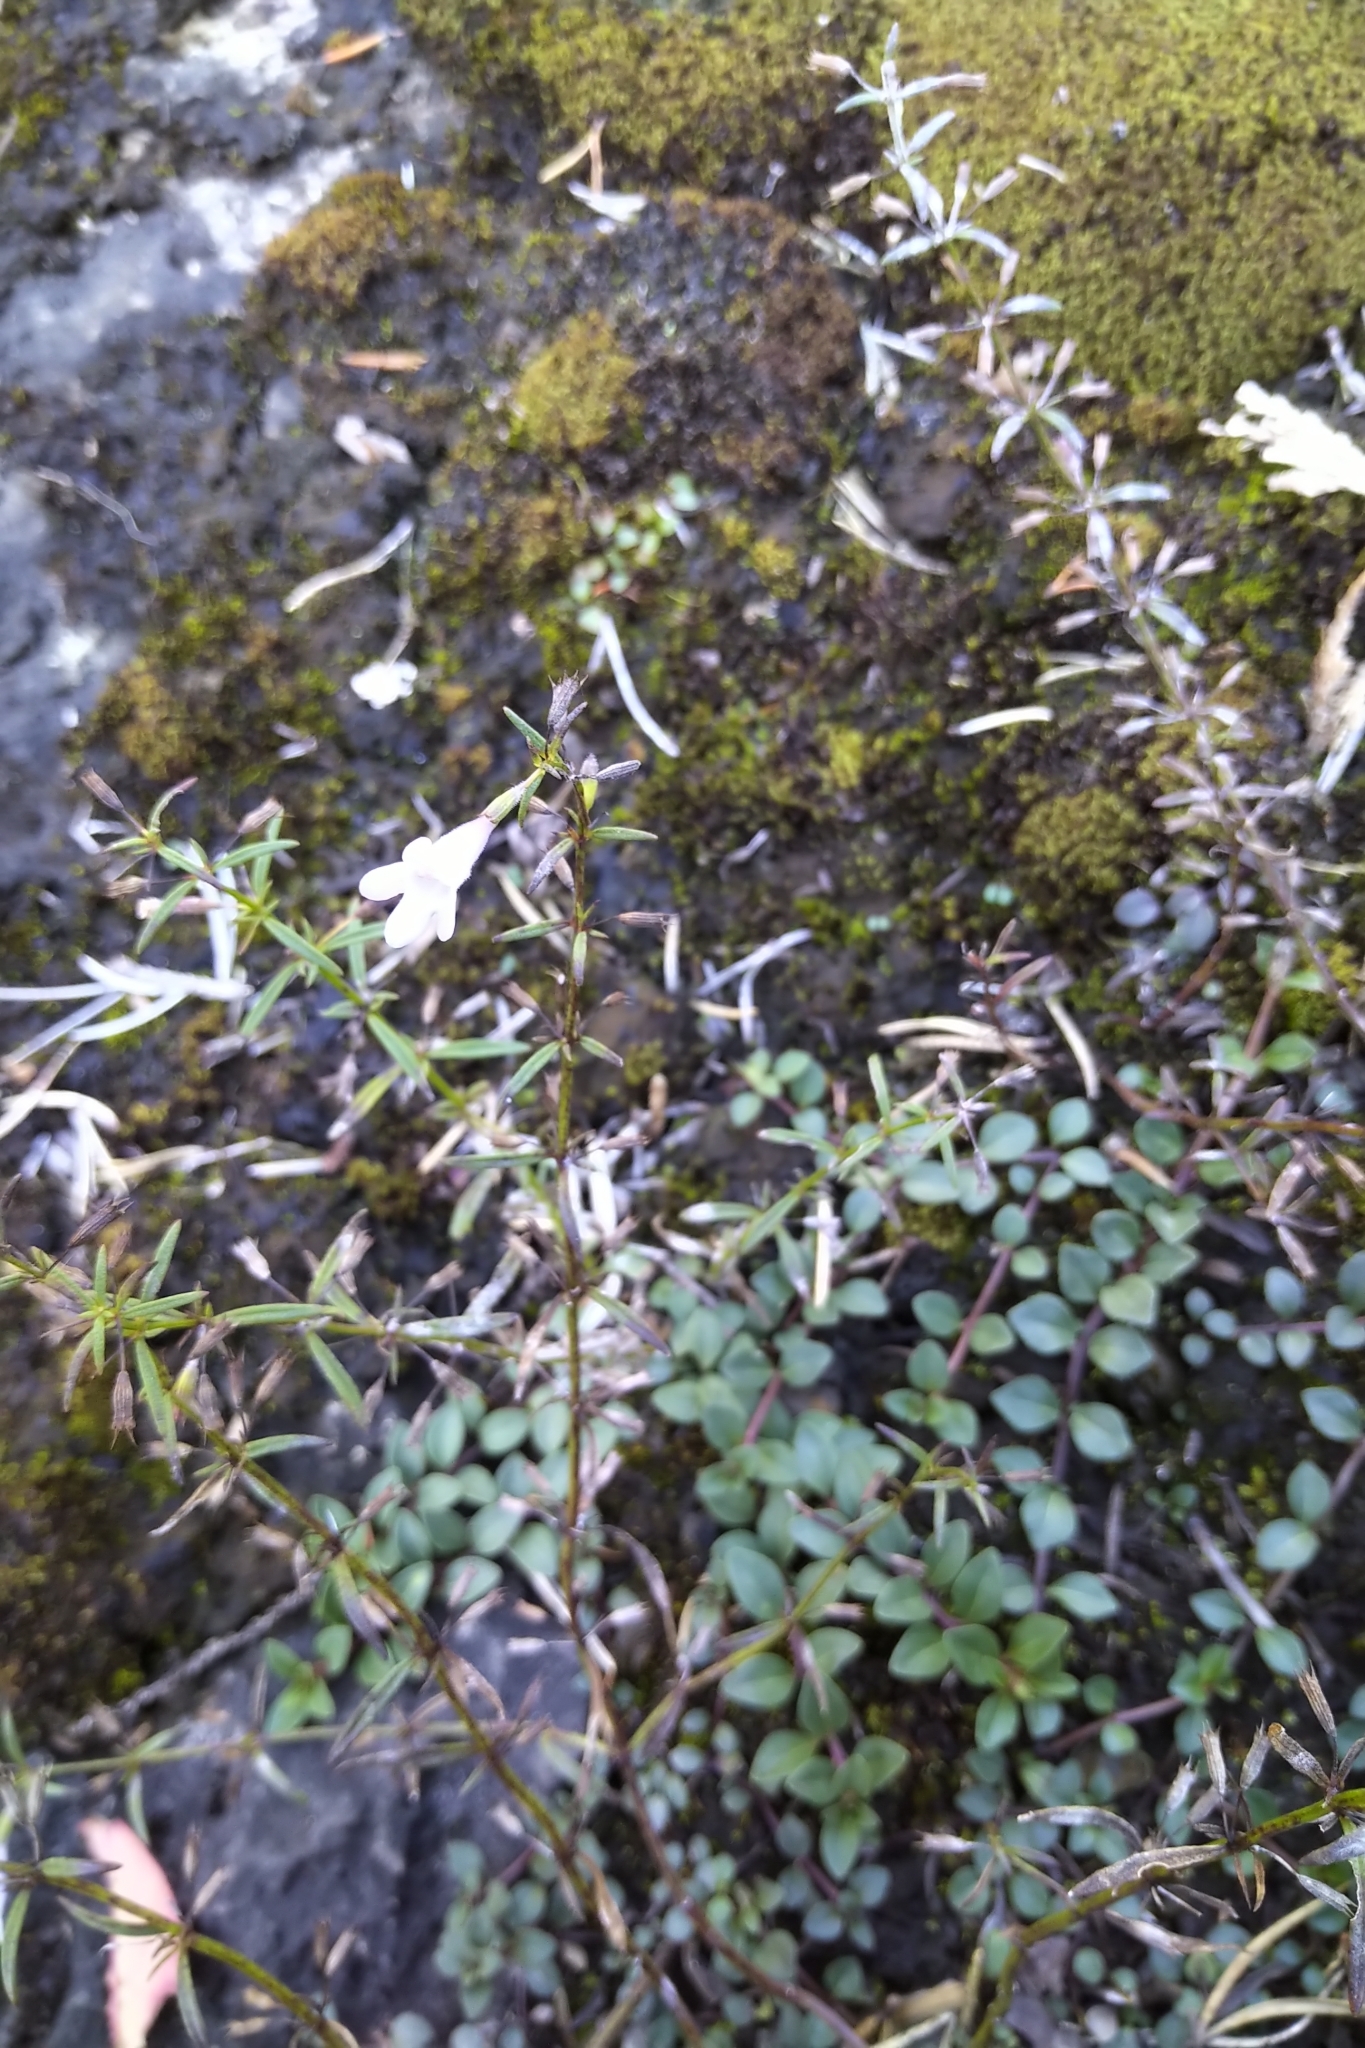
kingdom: Plantae
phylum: Tracheophyta
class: Magnoliopsida
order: Lamiales
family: Lamiaceae
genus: Clinopodium
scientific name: Clinopodium arkansanum
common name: Limestone calamint
